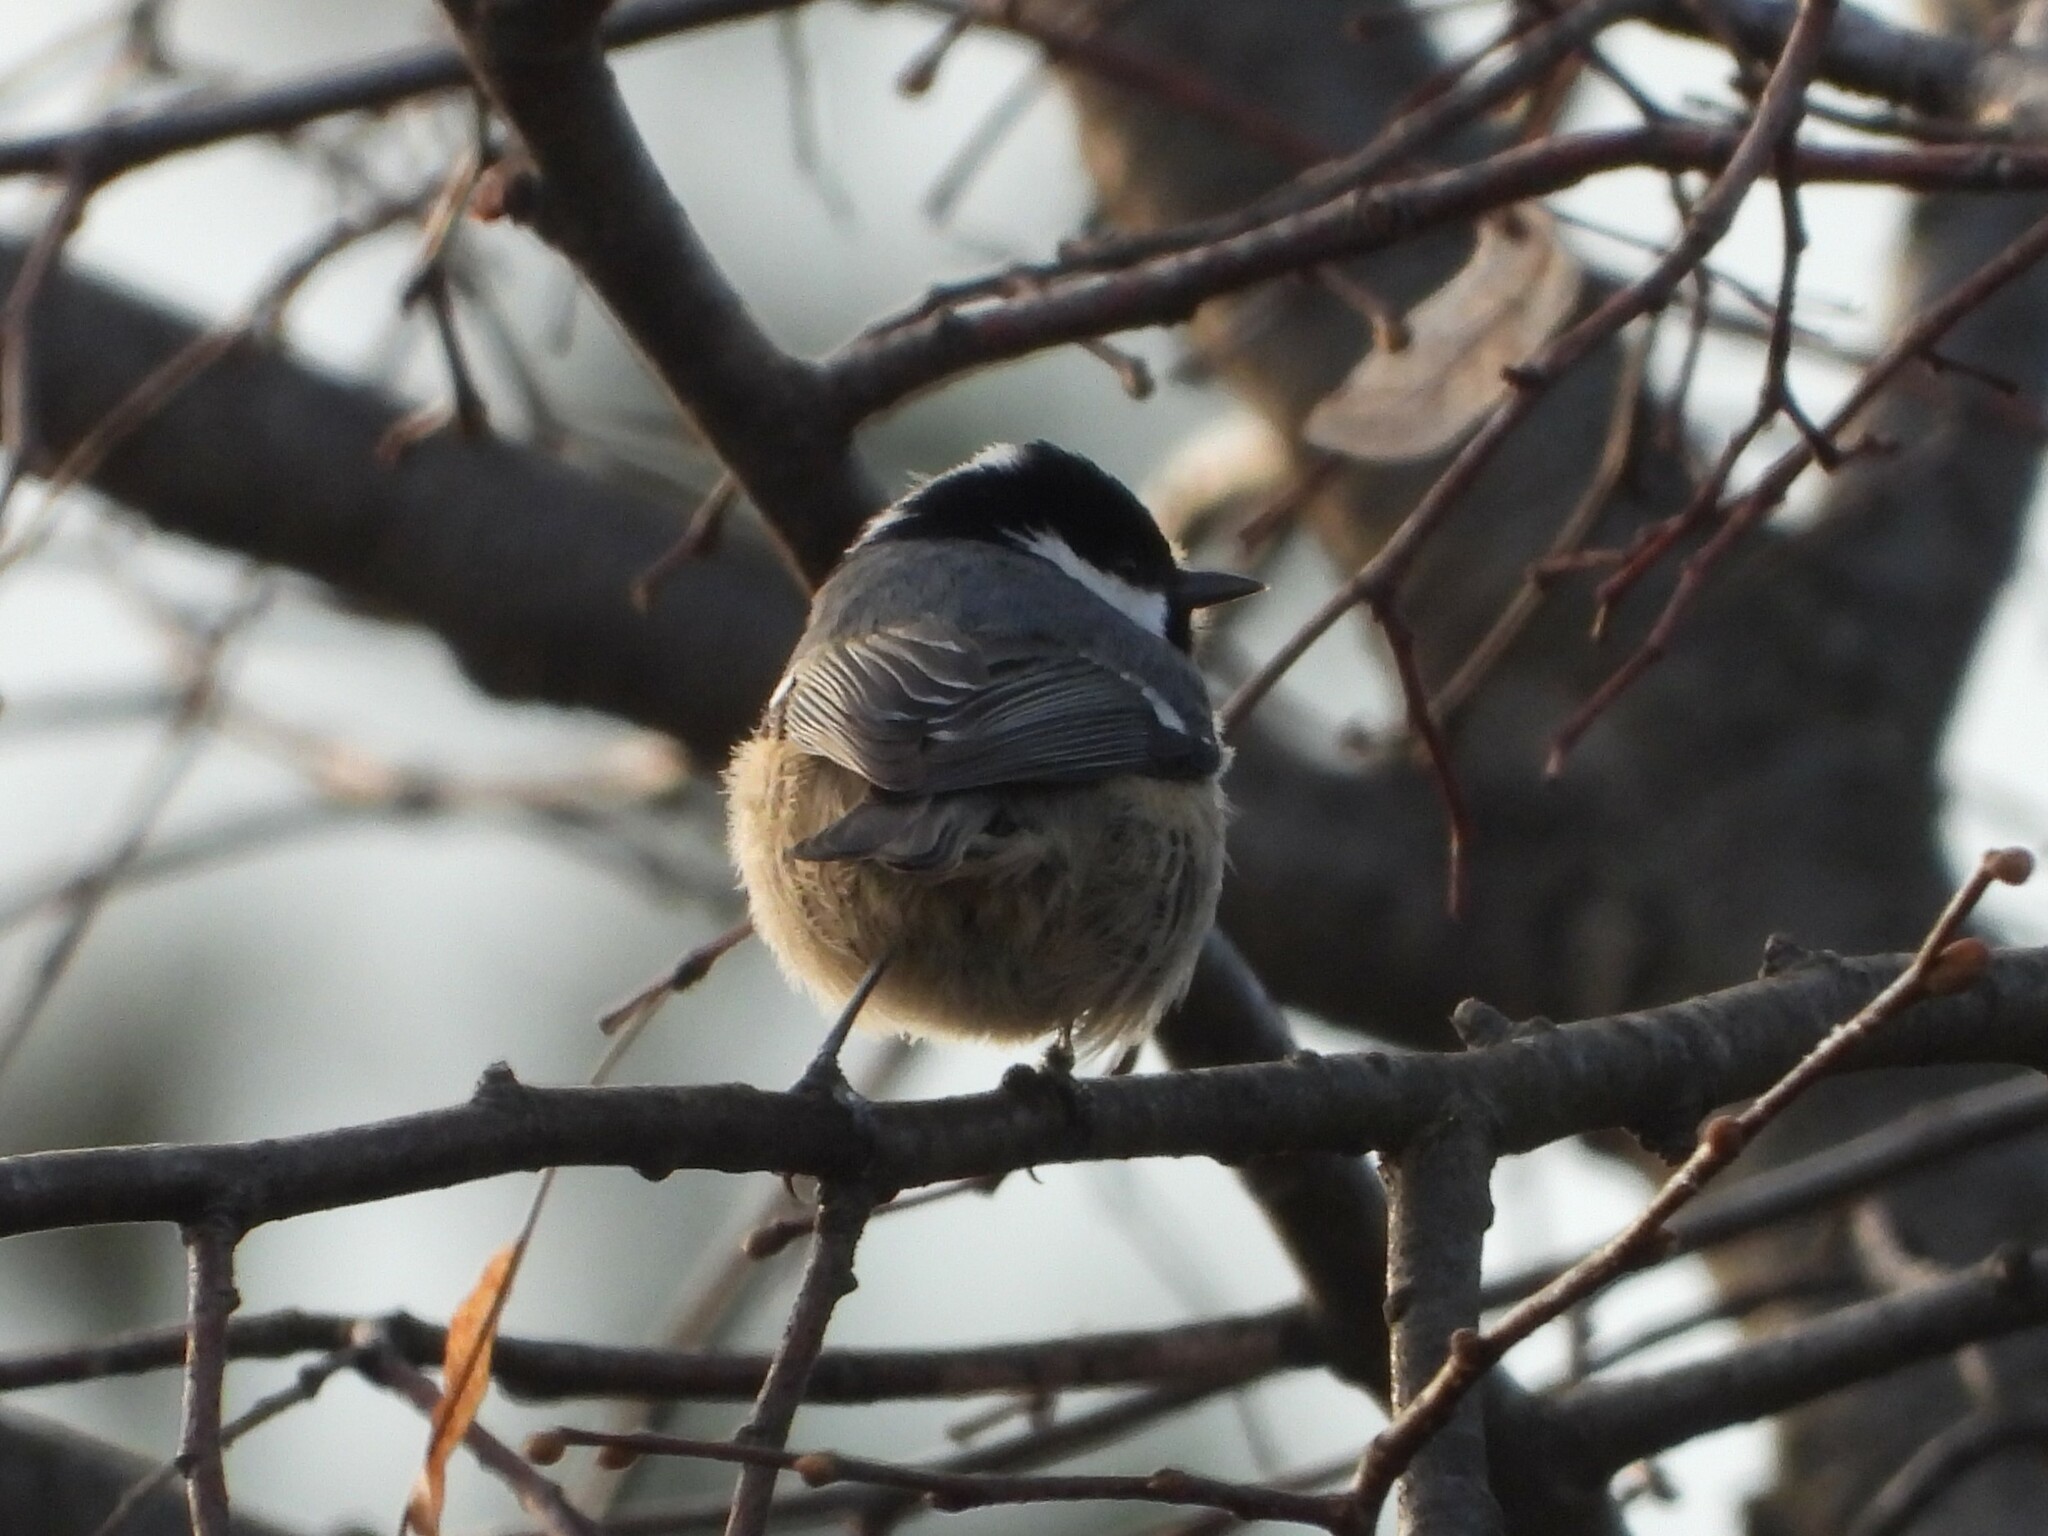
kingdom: Animalia
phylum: Chordata
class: Aves
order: Passeriformes
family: Paridae
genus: Periparus
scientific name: Periparus ater
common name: Coal tit
